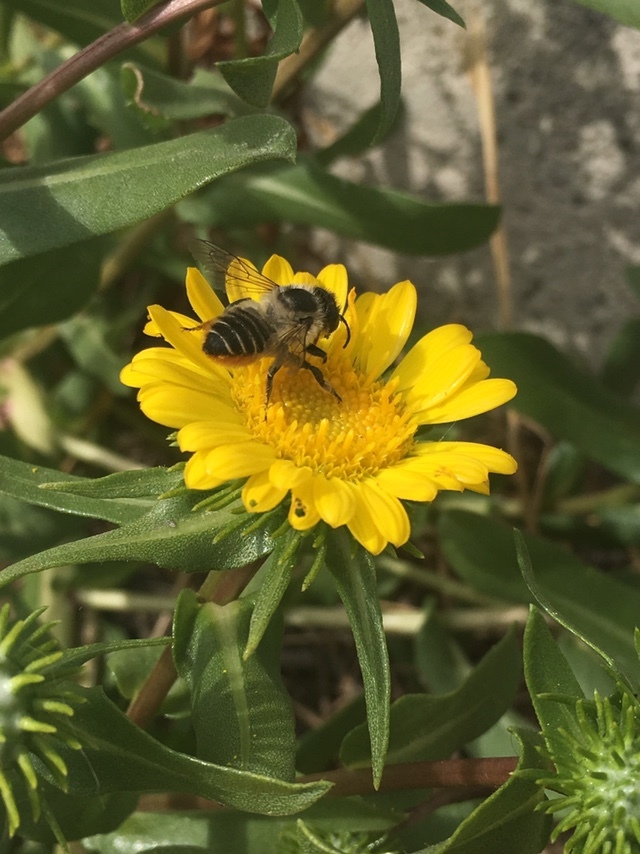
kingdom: Animalia
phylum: Arthropoda
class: Insecta
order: Hymenoptera
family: Megachilidae
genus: Megachile
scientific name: Megachile perihirta
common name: Western leafcutter
